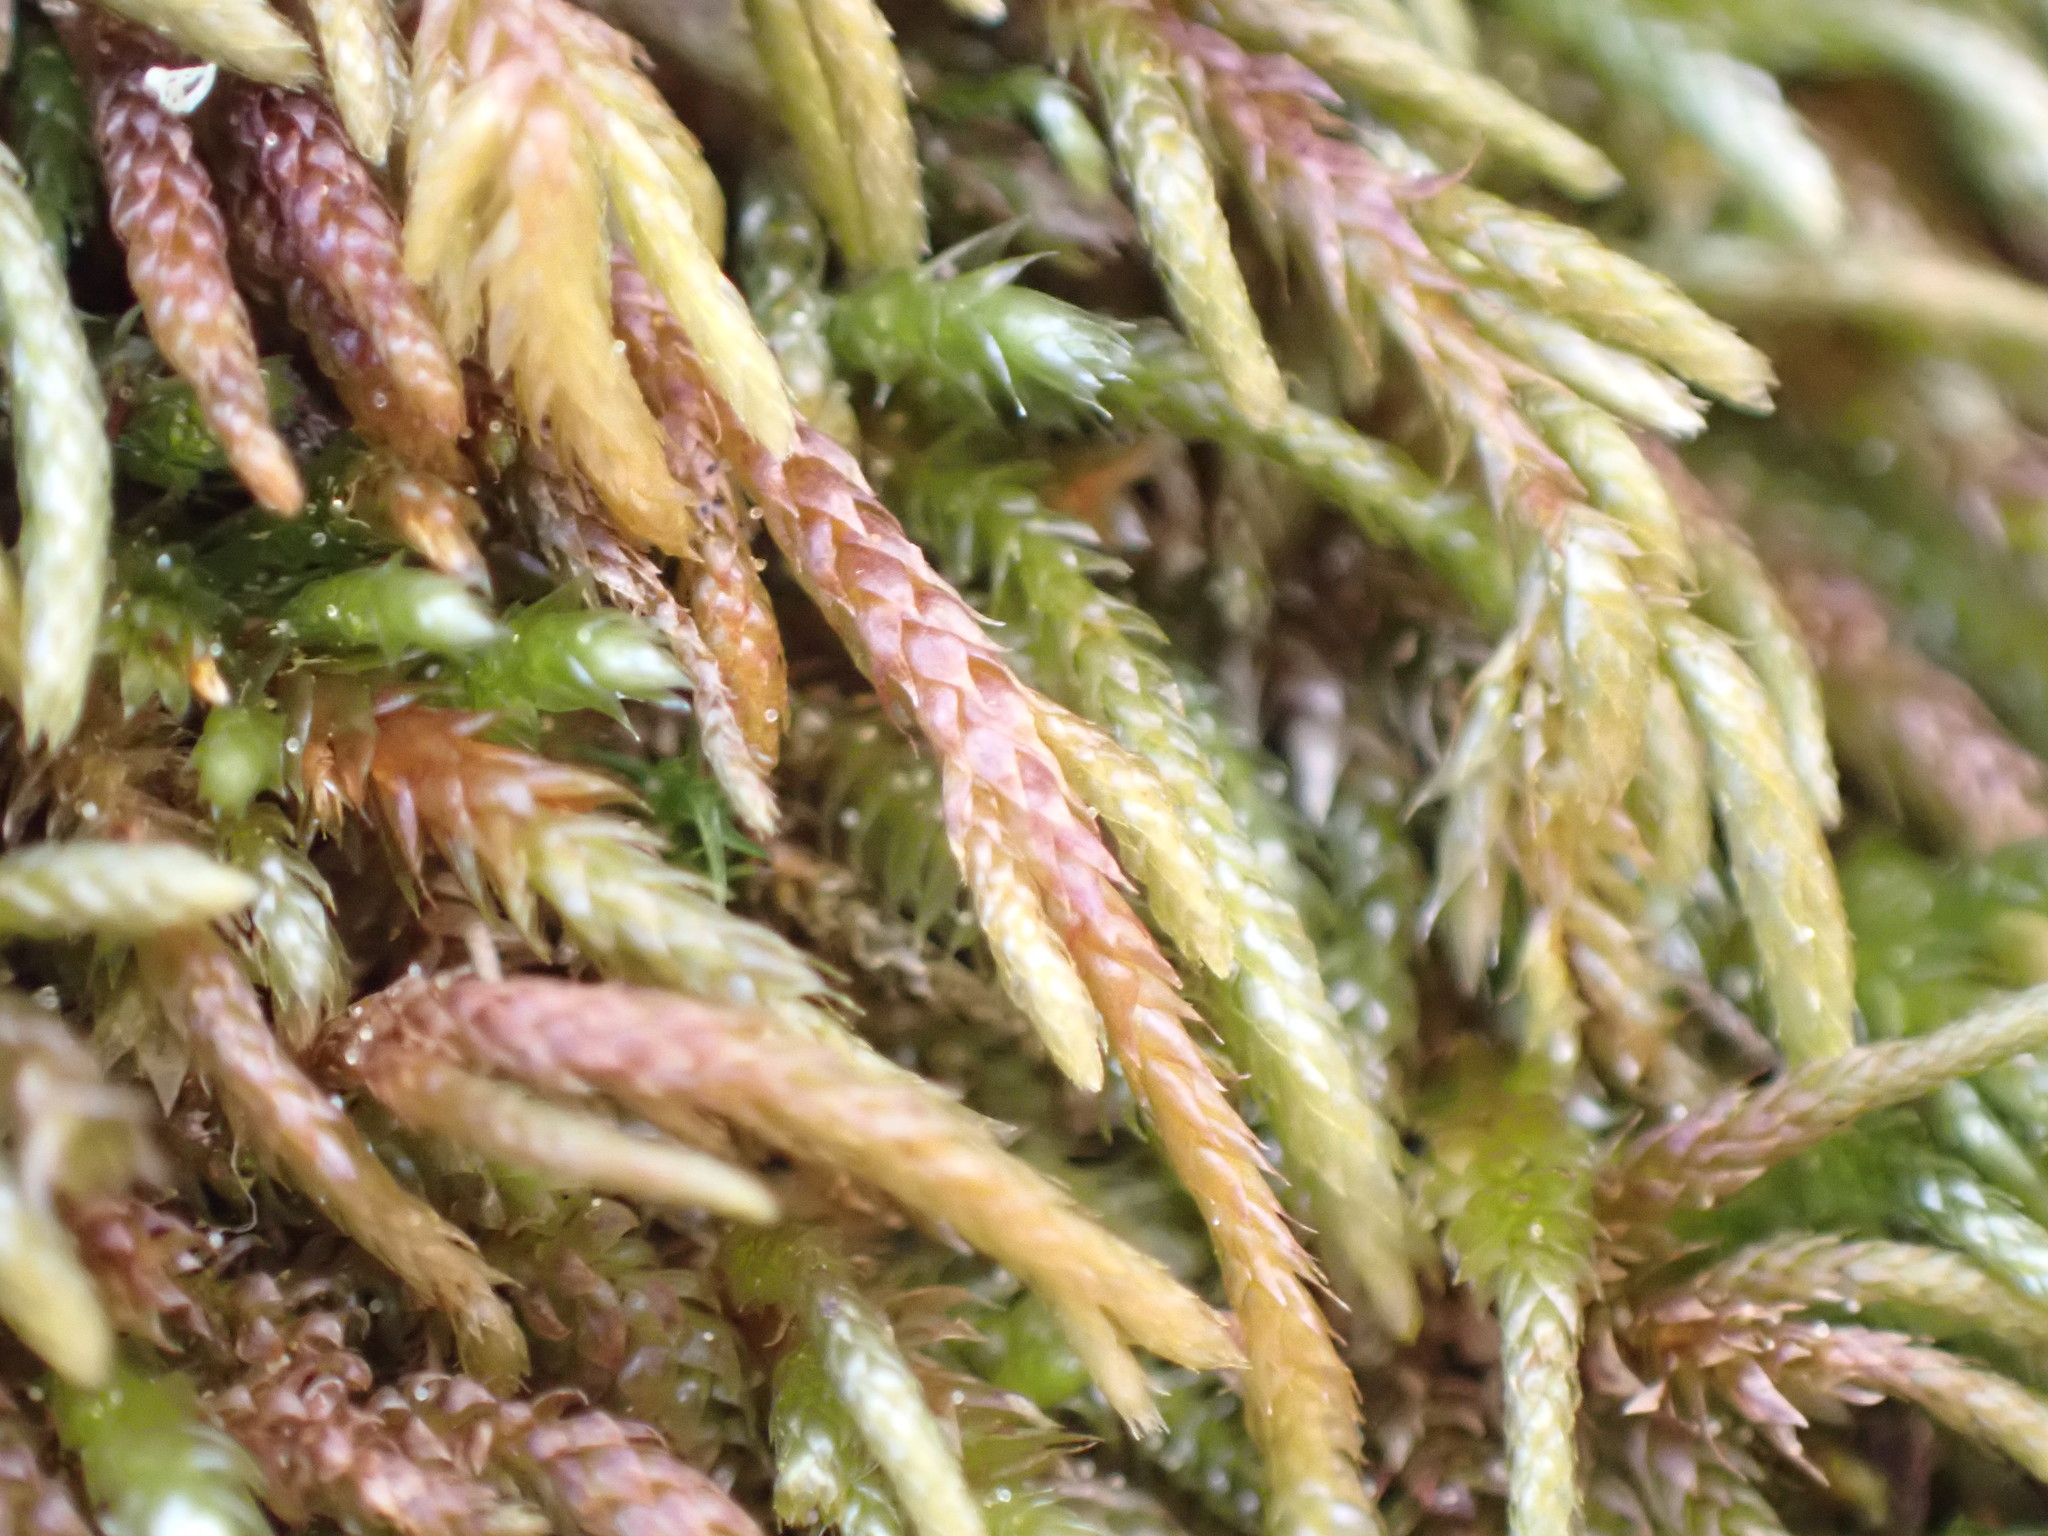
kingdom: Plantae
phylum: Bryophyta
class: Bryopsida
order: Hypnales
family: Antitrichiaceae
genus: Antitrichia
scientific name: Antitrichia californica
